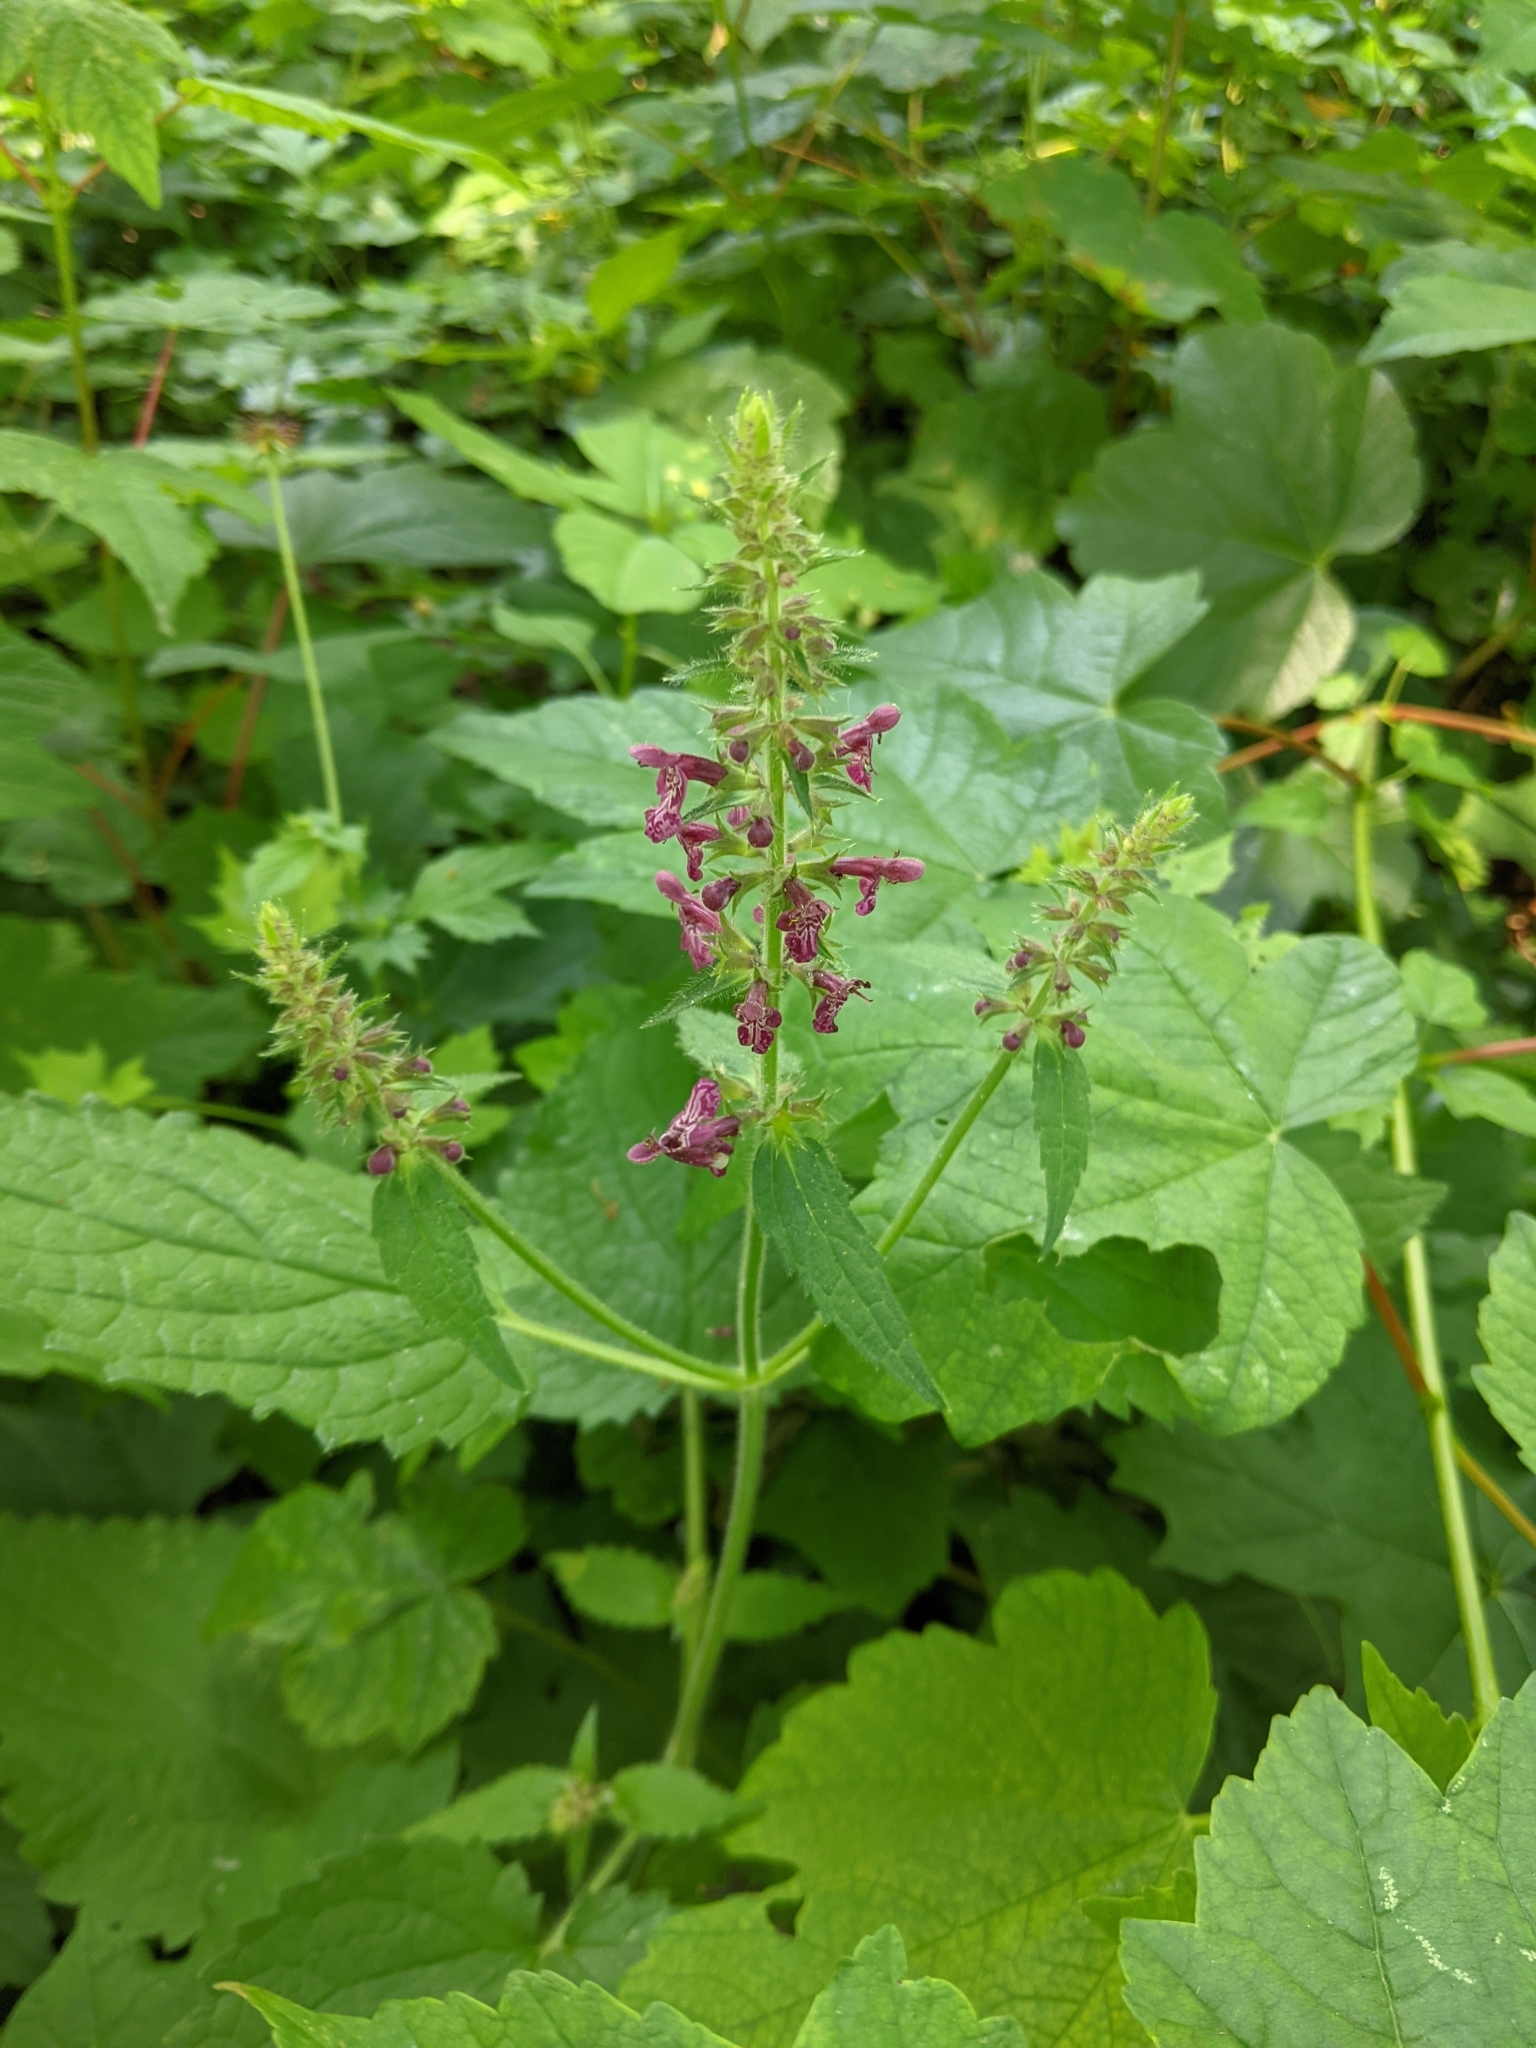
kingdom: Plantae
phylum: Tracheophyta
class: Magnoliopsida
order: Lamiales
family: Lamiaceae
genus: Stachys
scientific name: Stachys sylvatica
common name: Hedge woundwort
